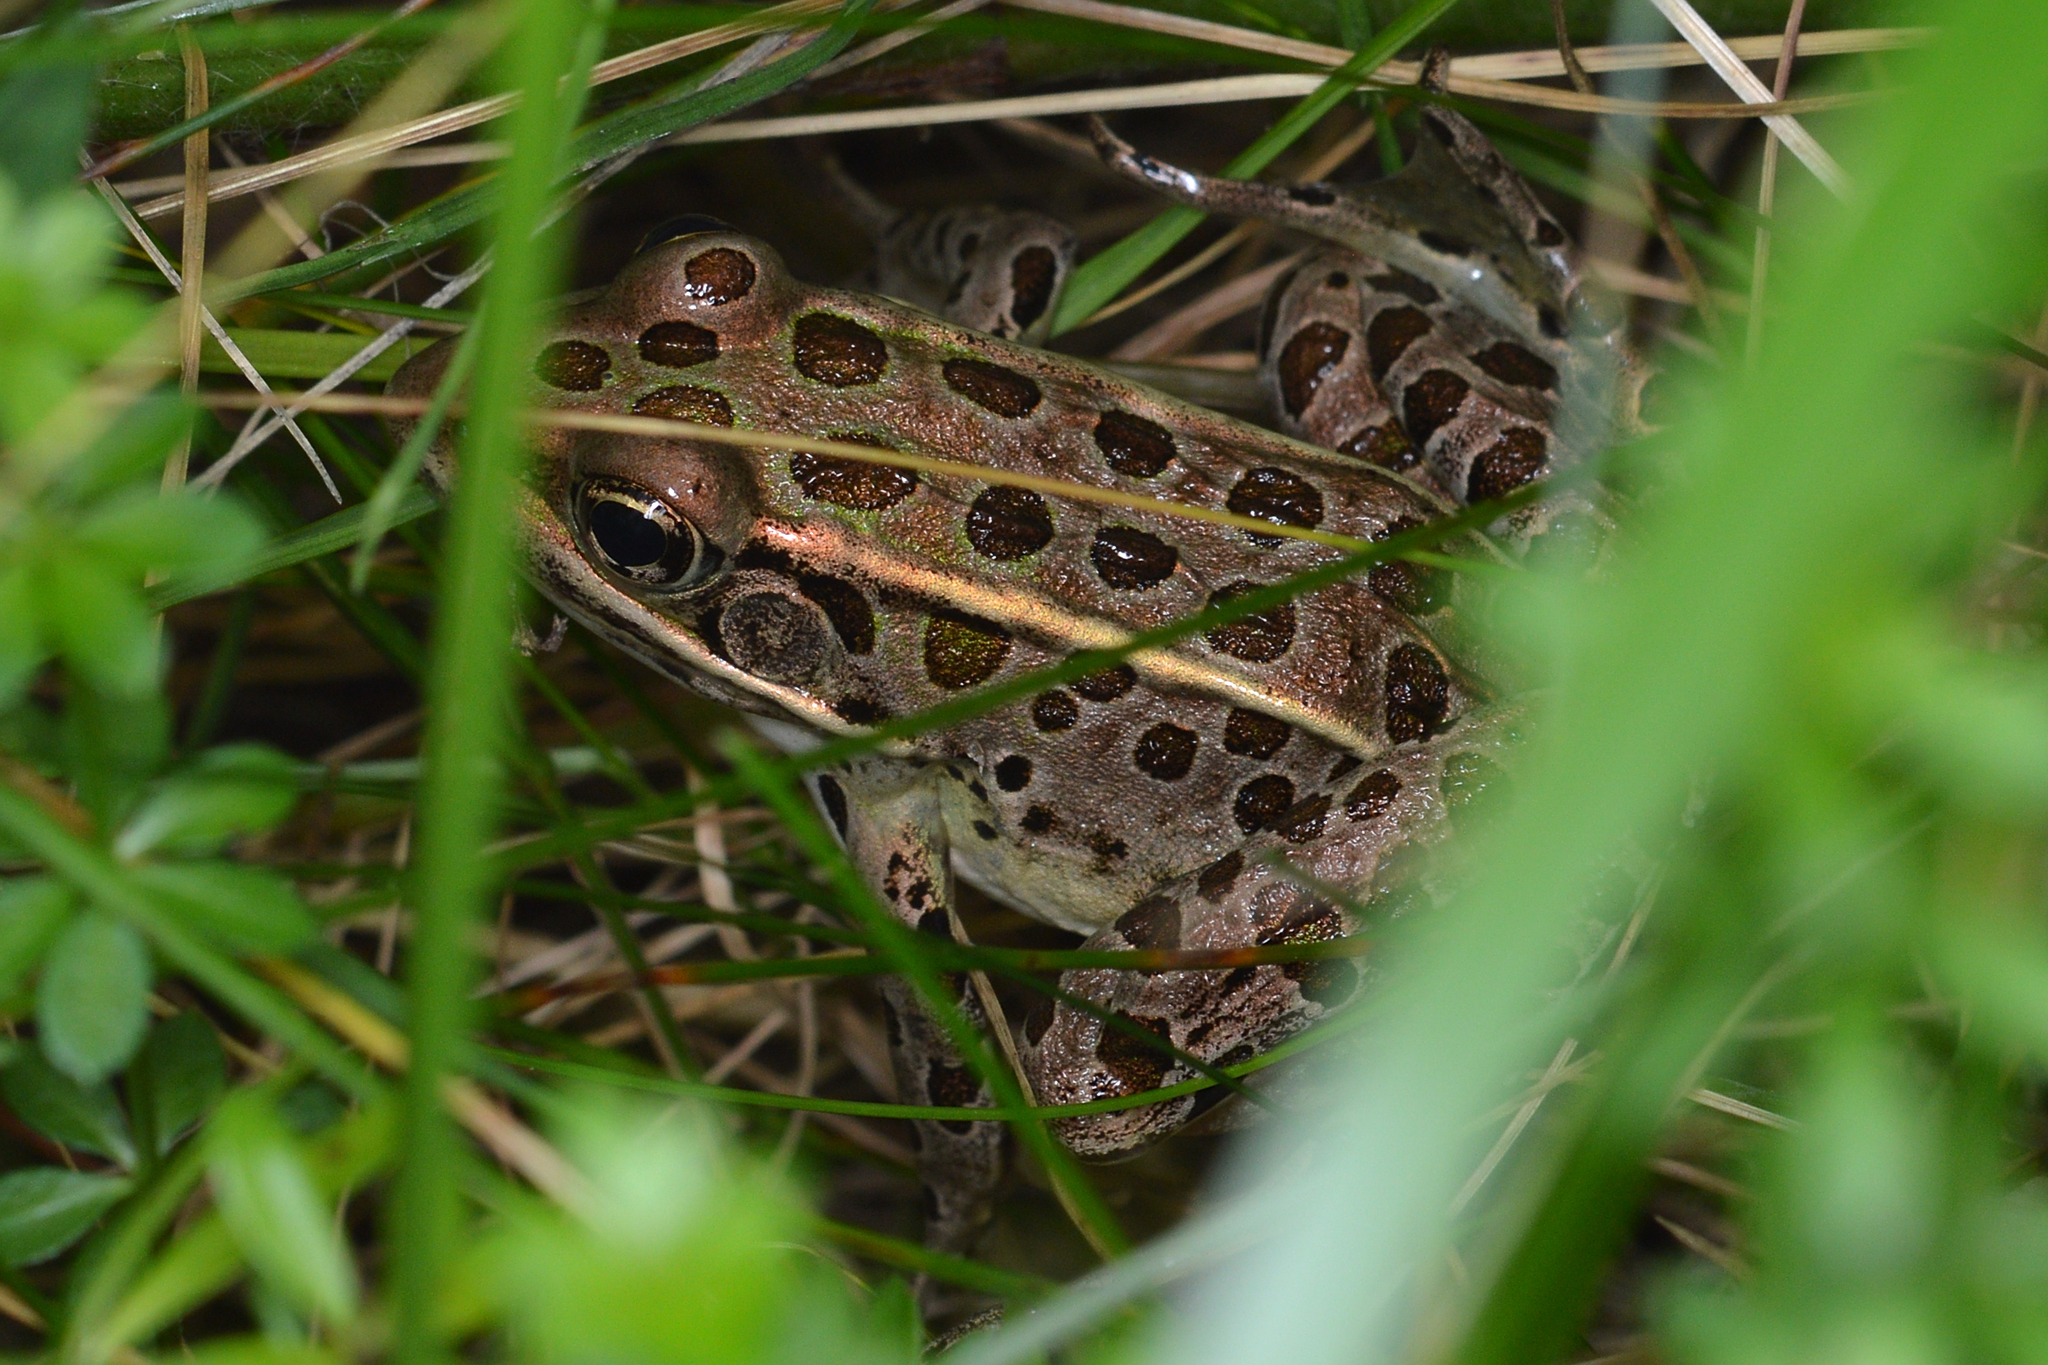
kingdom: Animalia
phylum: Chordata
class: Amphibia
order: Anura
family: Ranidae
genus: Lithobates
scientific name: Lithobates pipiens
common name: Northern leopard frog
